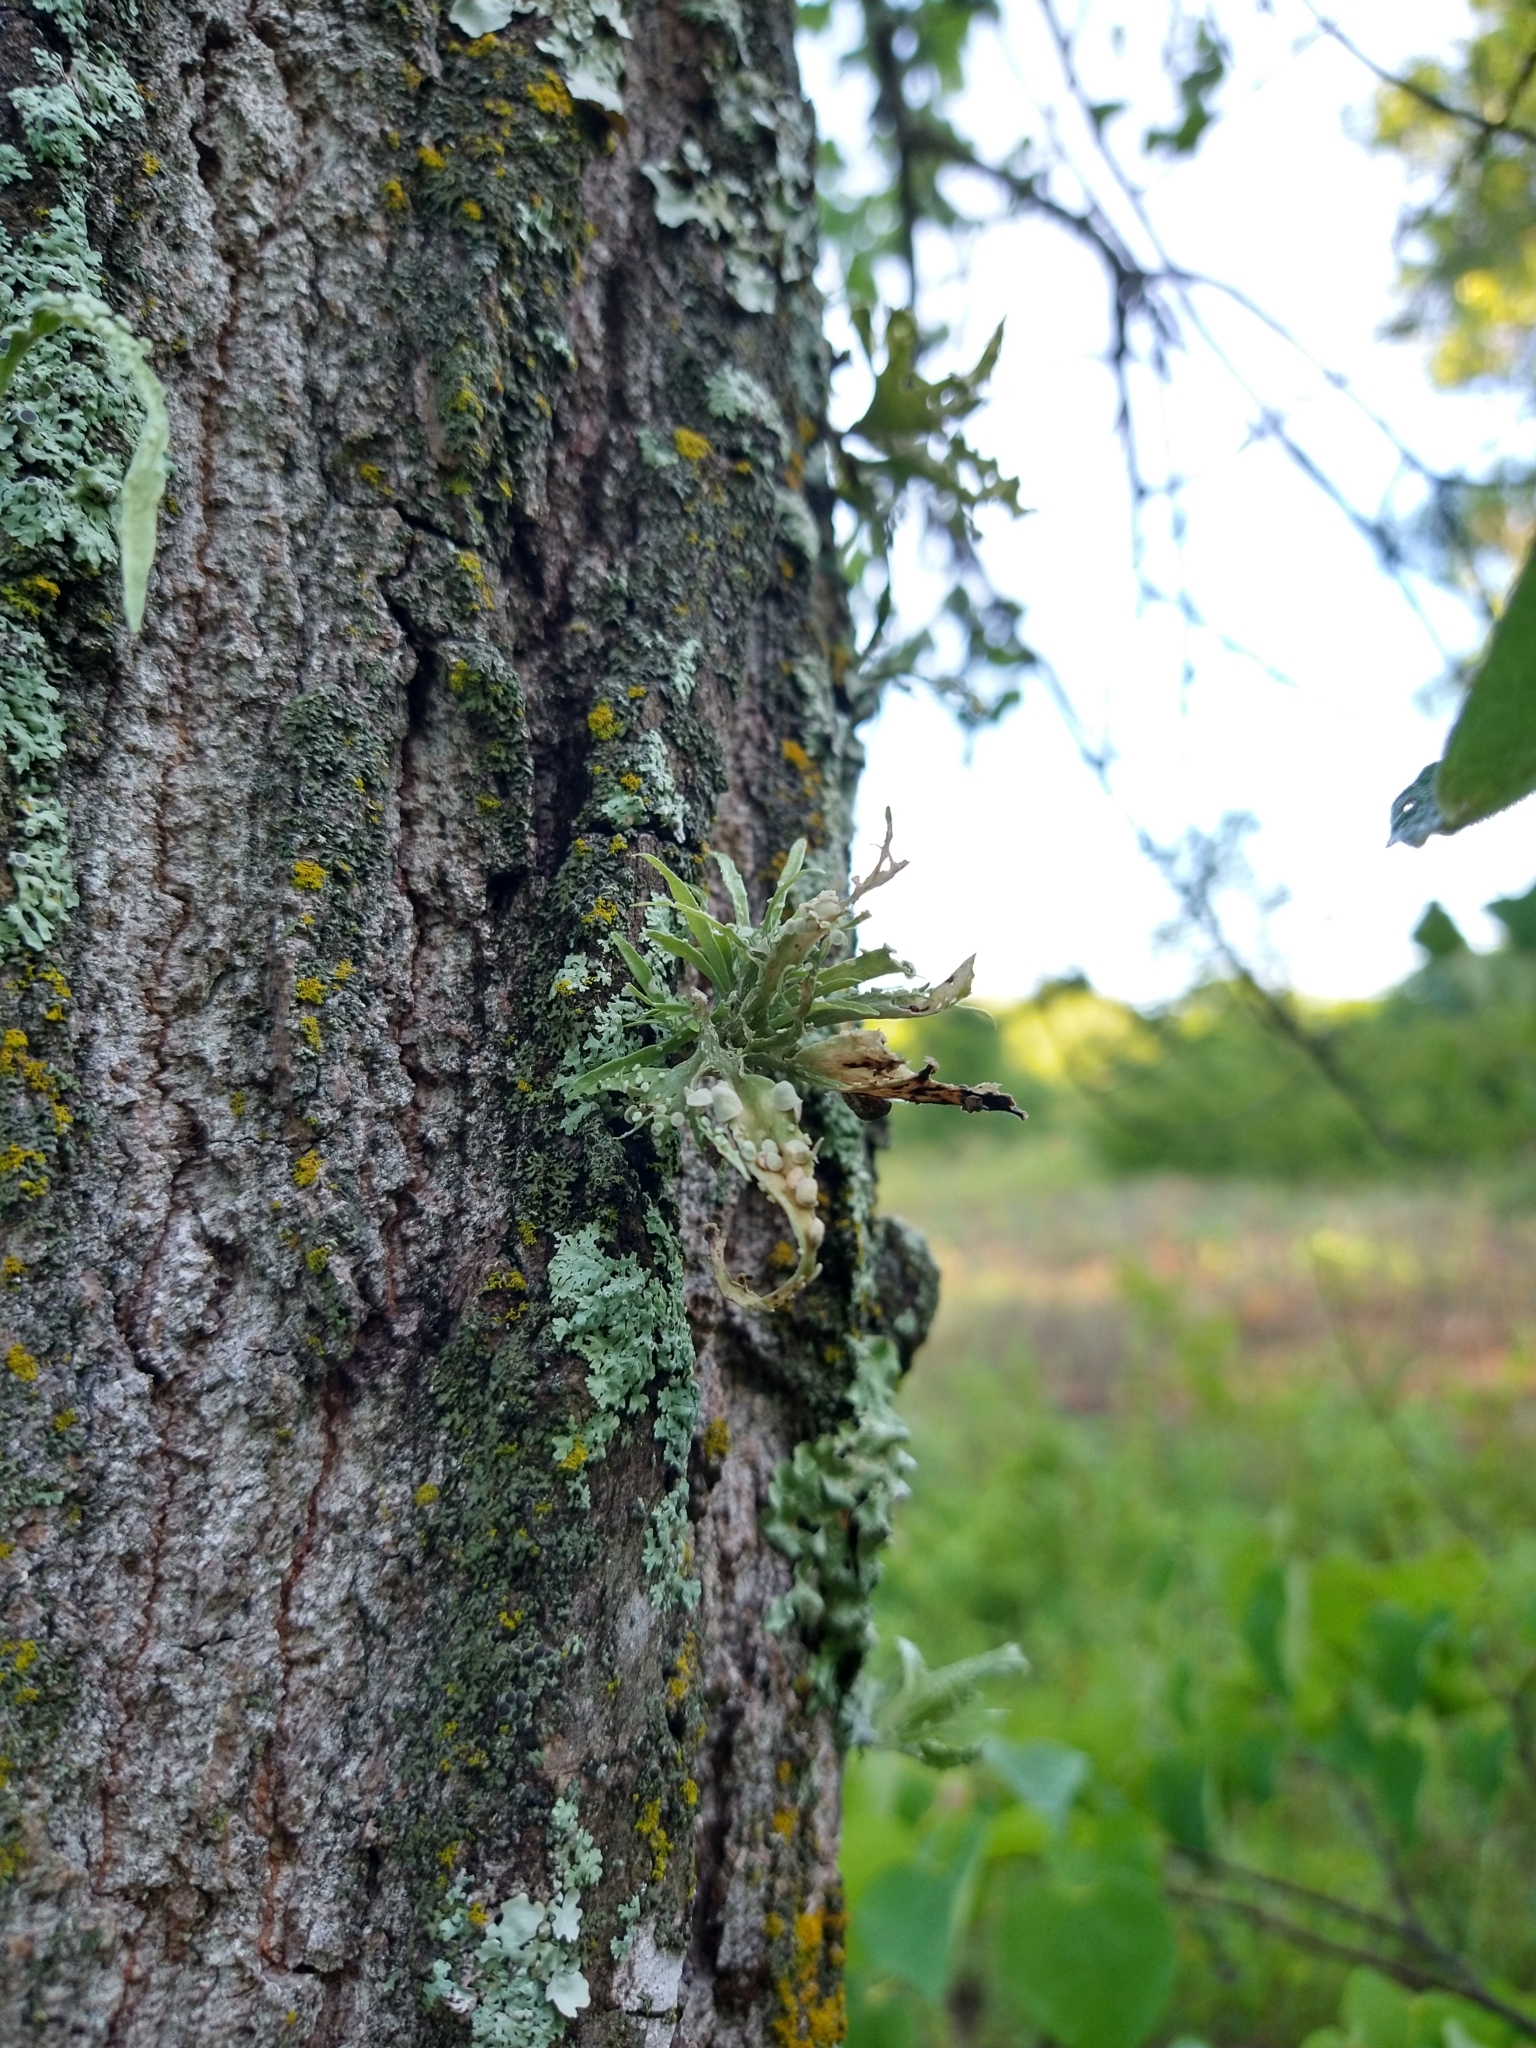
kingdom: Fungi
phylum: Ascomycota
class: Lecanoromycetes
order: Lecanorales
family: Ramalinaceae
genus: Ramalina
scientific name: Ramalina celastri
